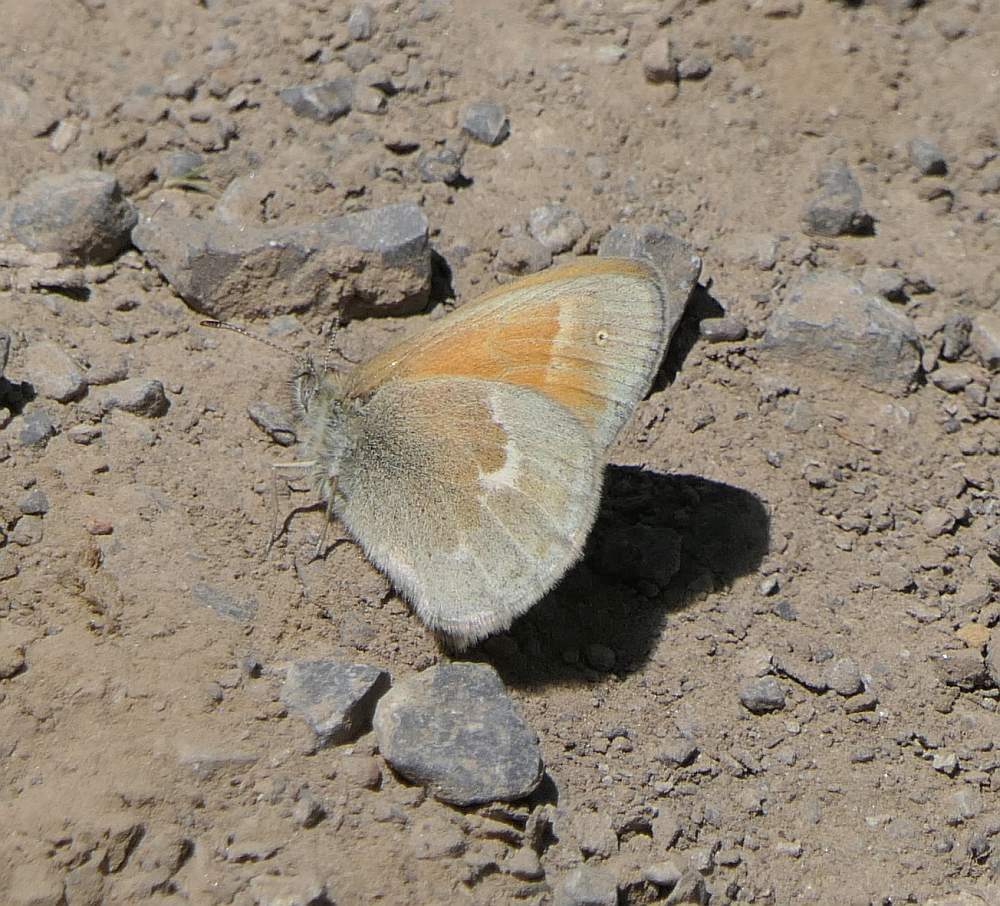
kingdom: Animalia
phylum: Arthropoda
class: Insecta
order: Lepidoptera
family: Nymphalidae
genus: Coenonympha
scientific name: Coenonympha california
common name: Common ringlet
